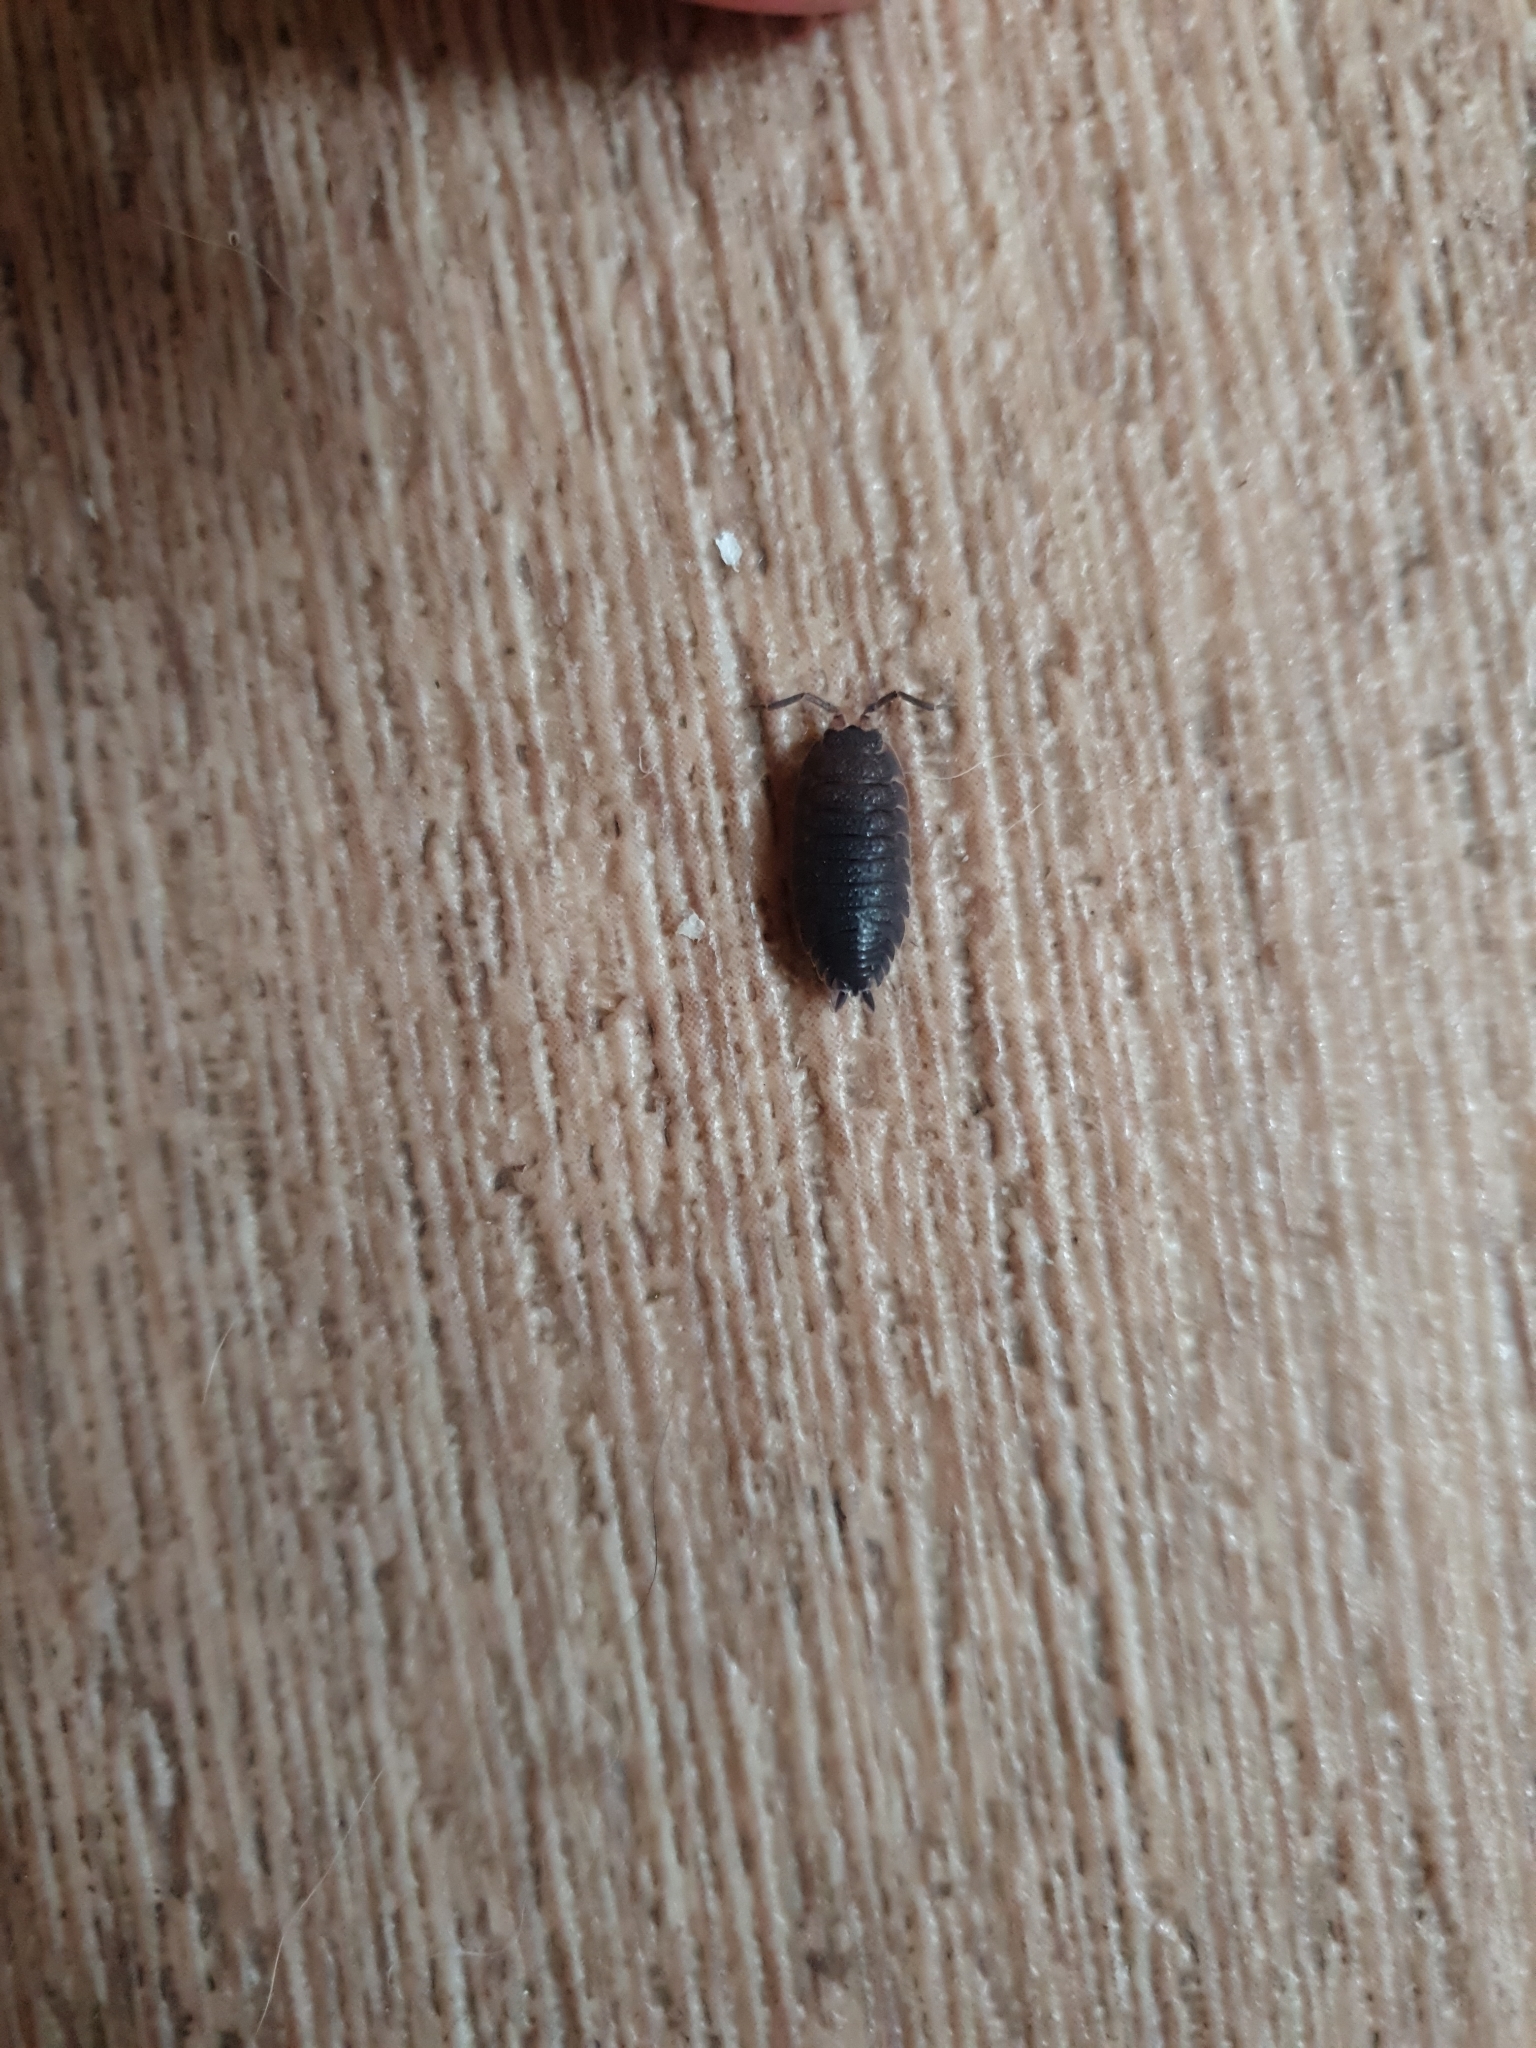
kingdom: Animalia
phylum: Arthropoda
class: Malacostraca
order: Isopoda
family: Porcellionidae
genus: Porcellio
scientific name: Porcellio scaber
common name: Common rough woodlouse
